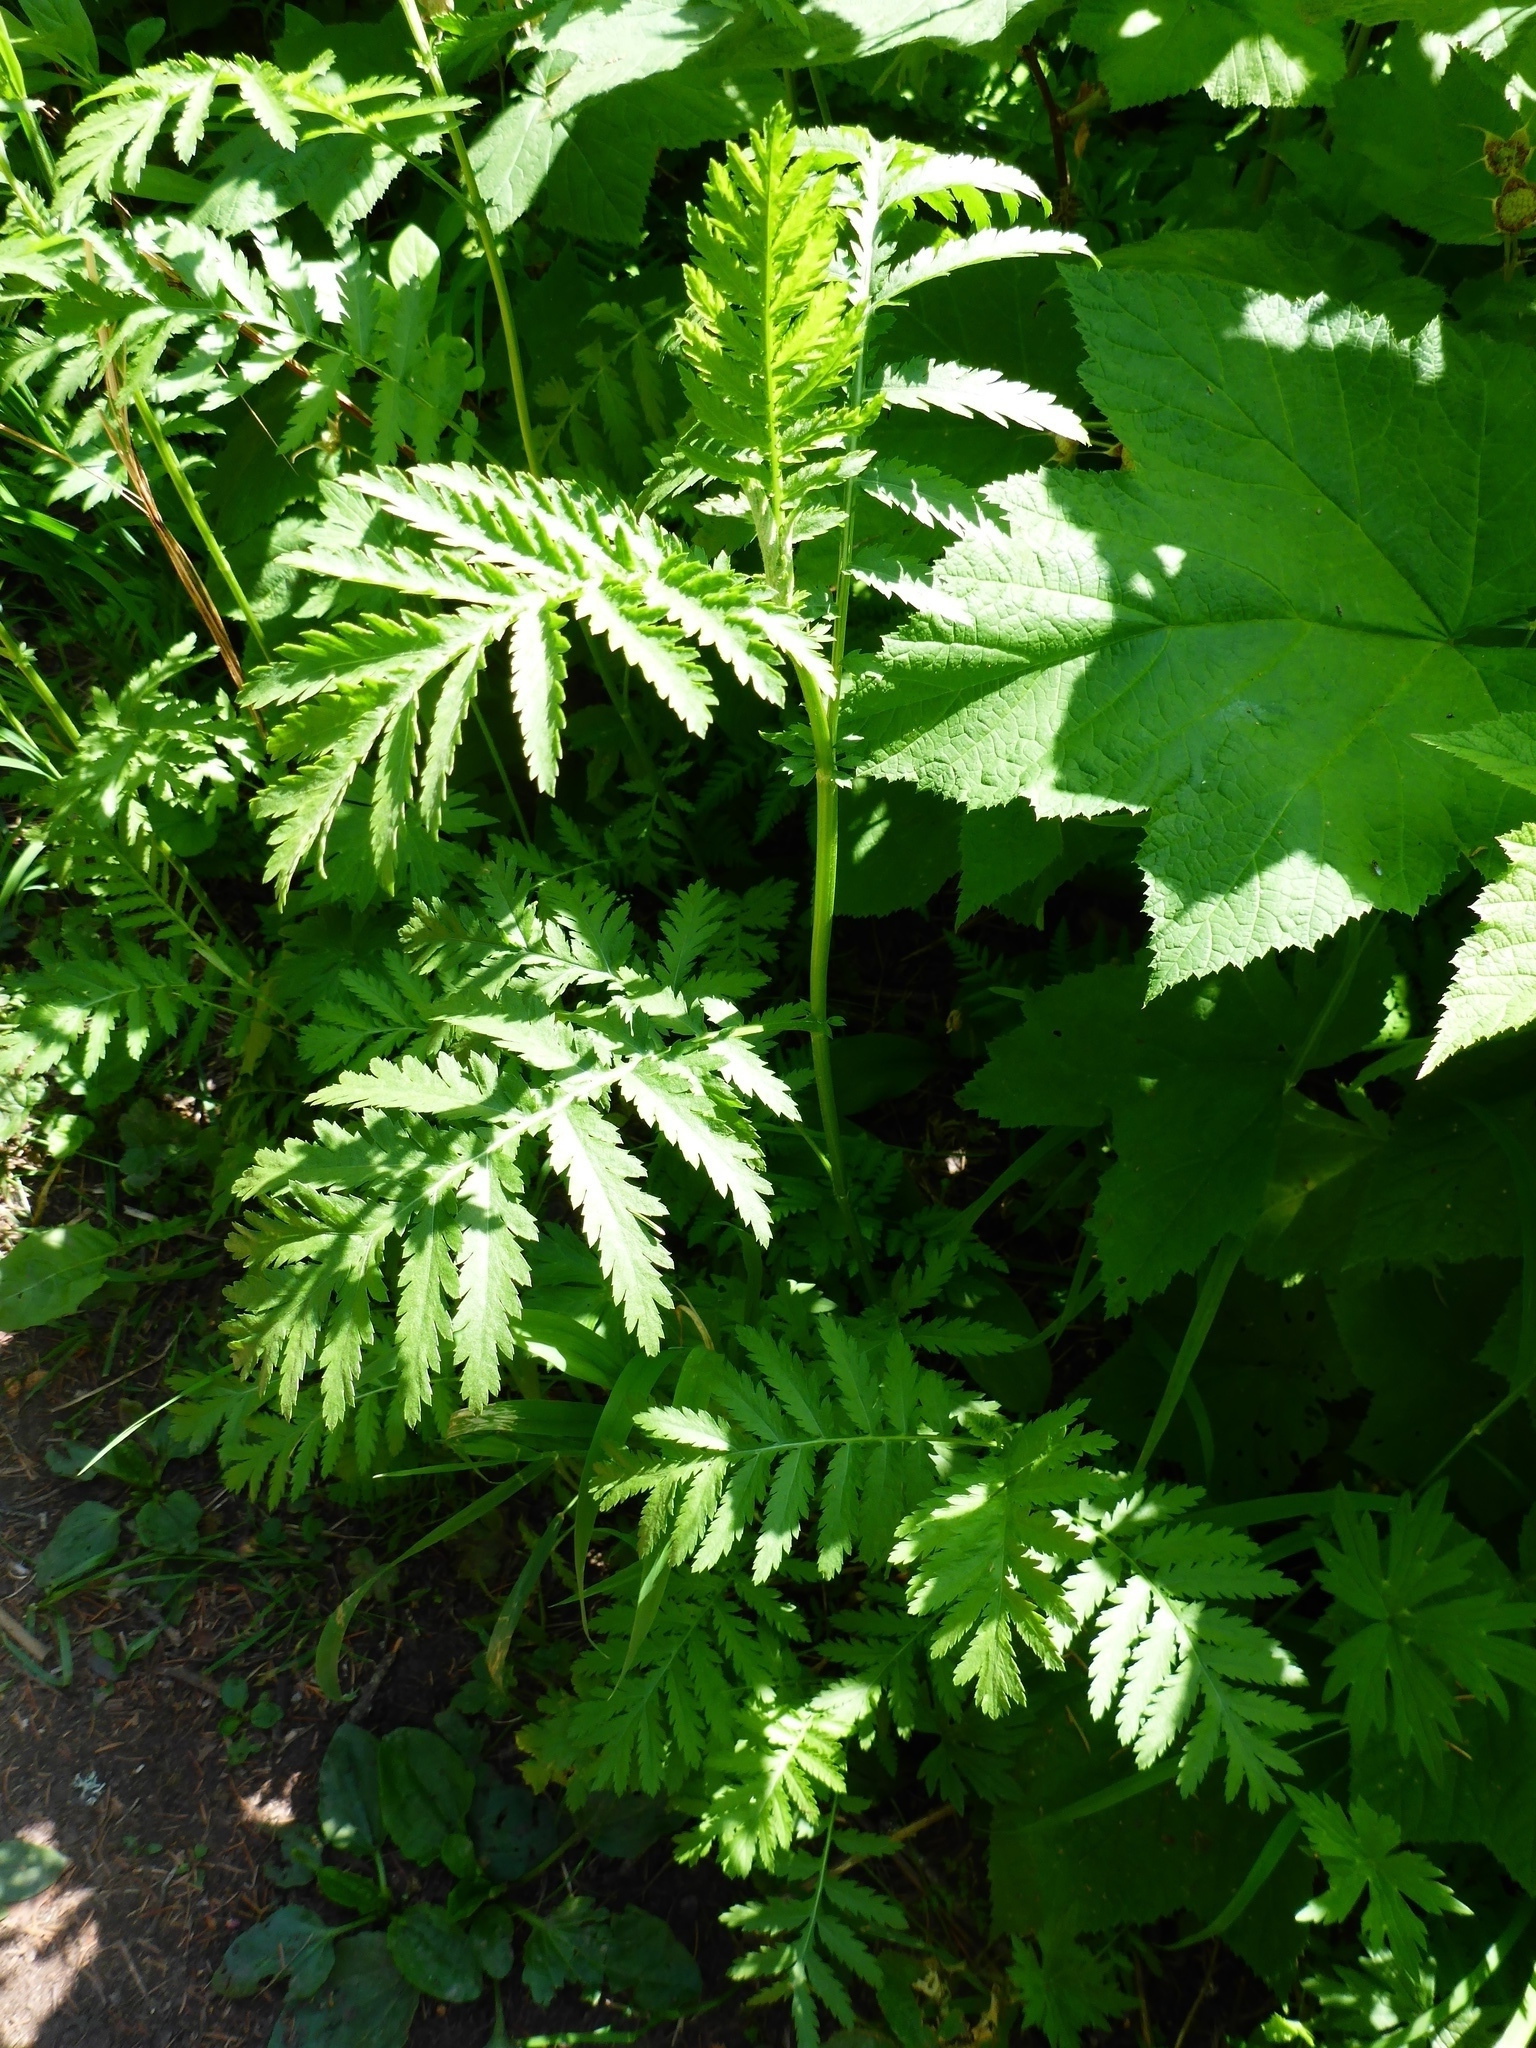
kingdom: Plantae
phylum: Tracheophyta
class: Magnoliopsida
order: Asterales
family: Asteraceae
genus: Tanacetum
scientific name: Tanacetum vulgare
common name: Common tansy
